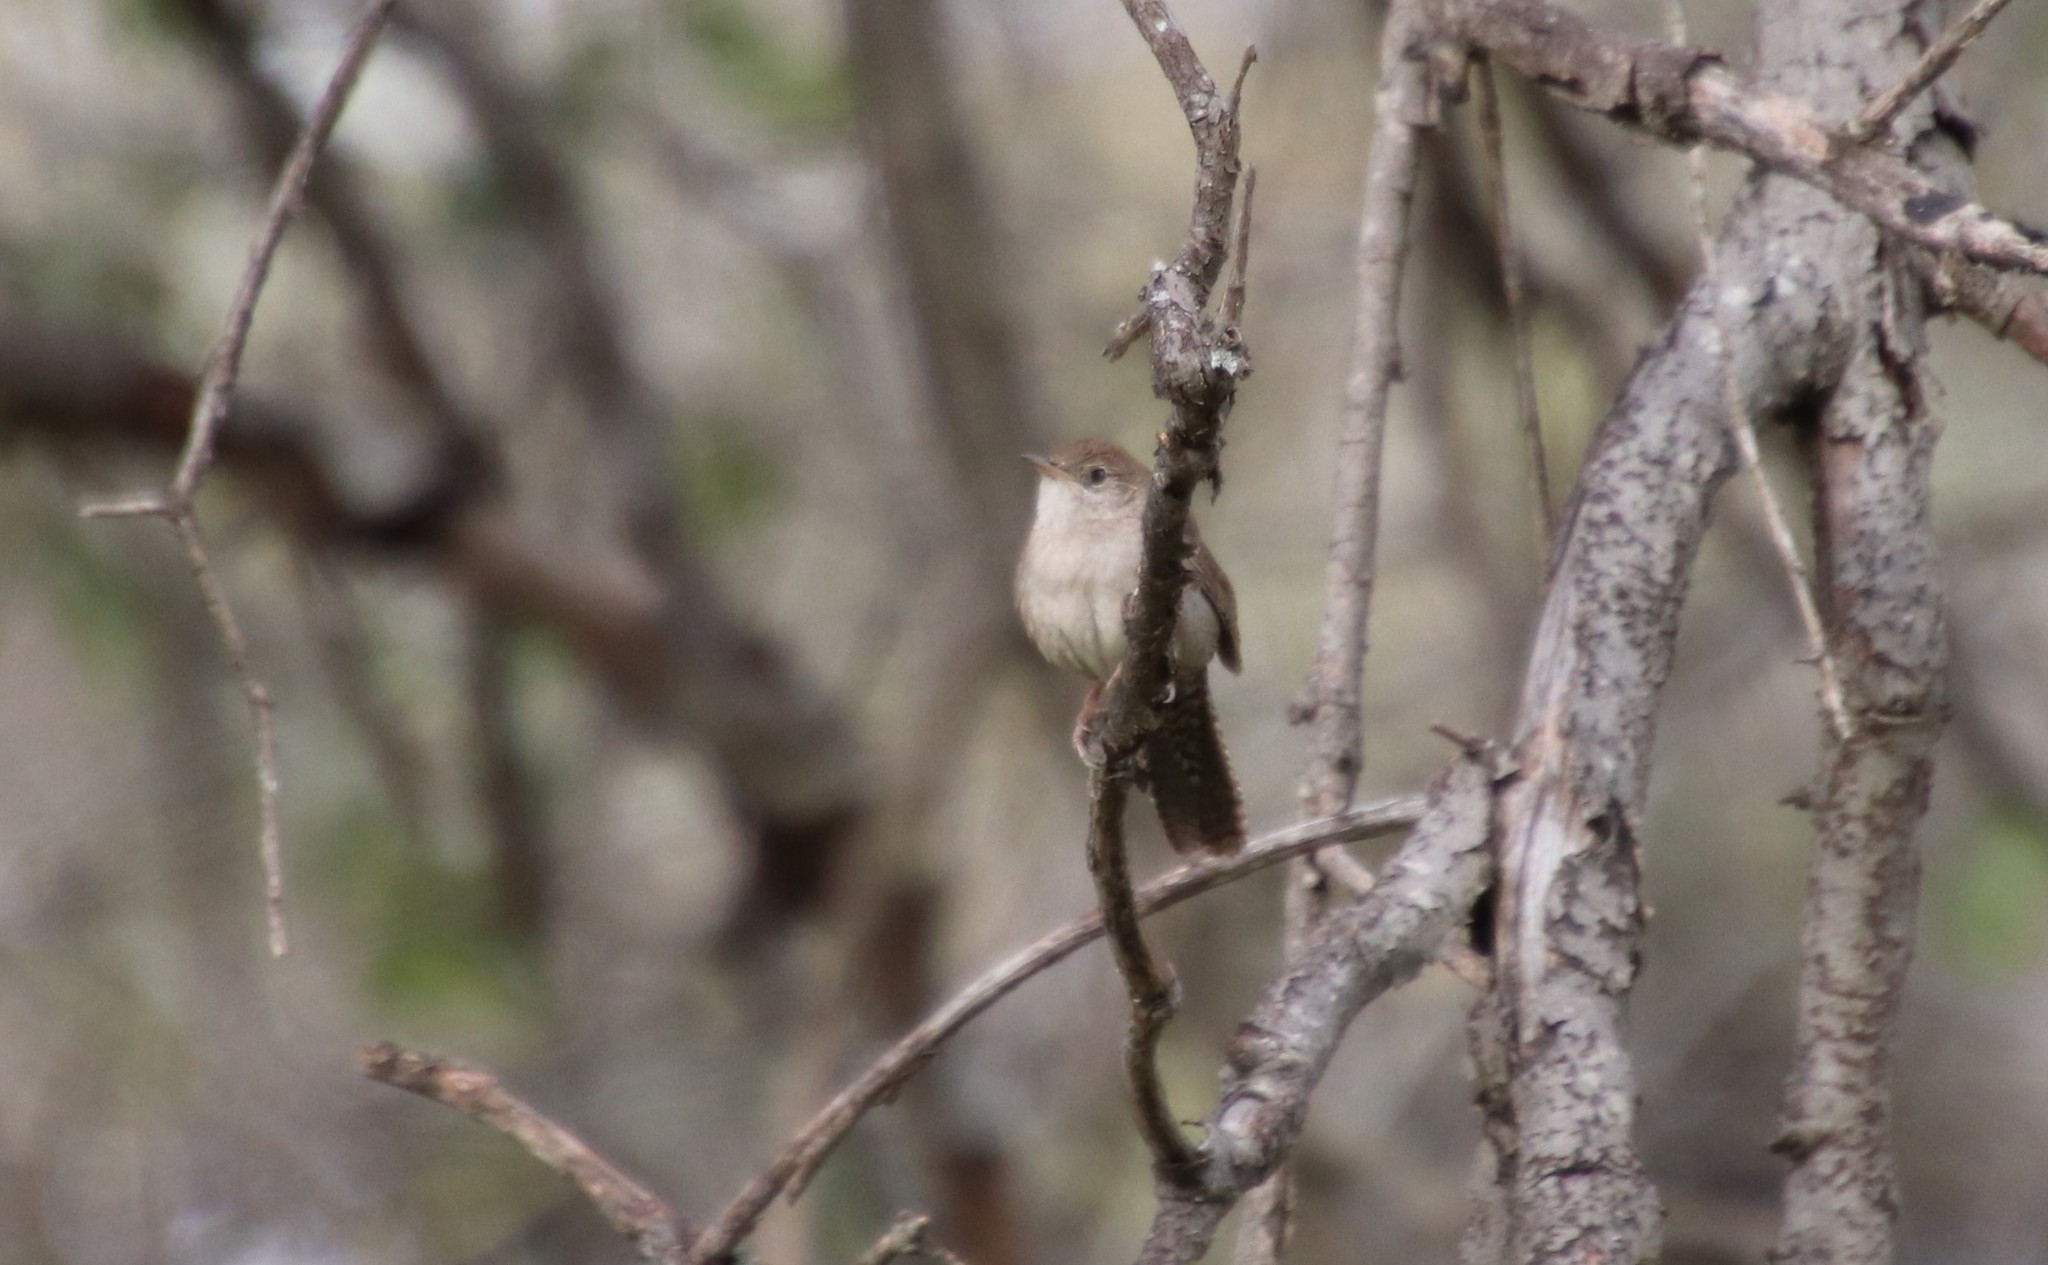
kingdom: Animalia
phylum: Chordata
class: Aves
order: Passeriformes
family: Troglodytidae
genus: Troglodytes
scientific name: Troglodytes aedon
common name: House wren
